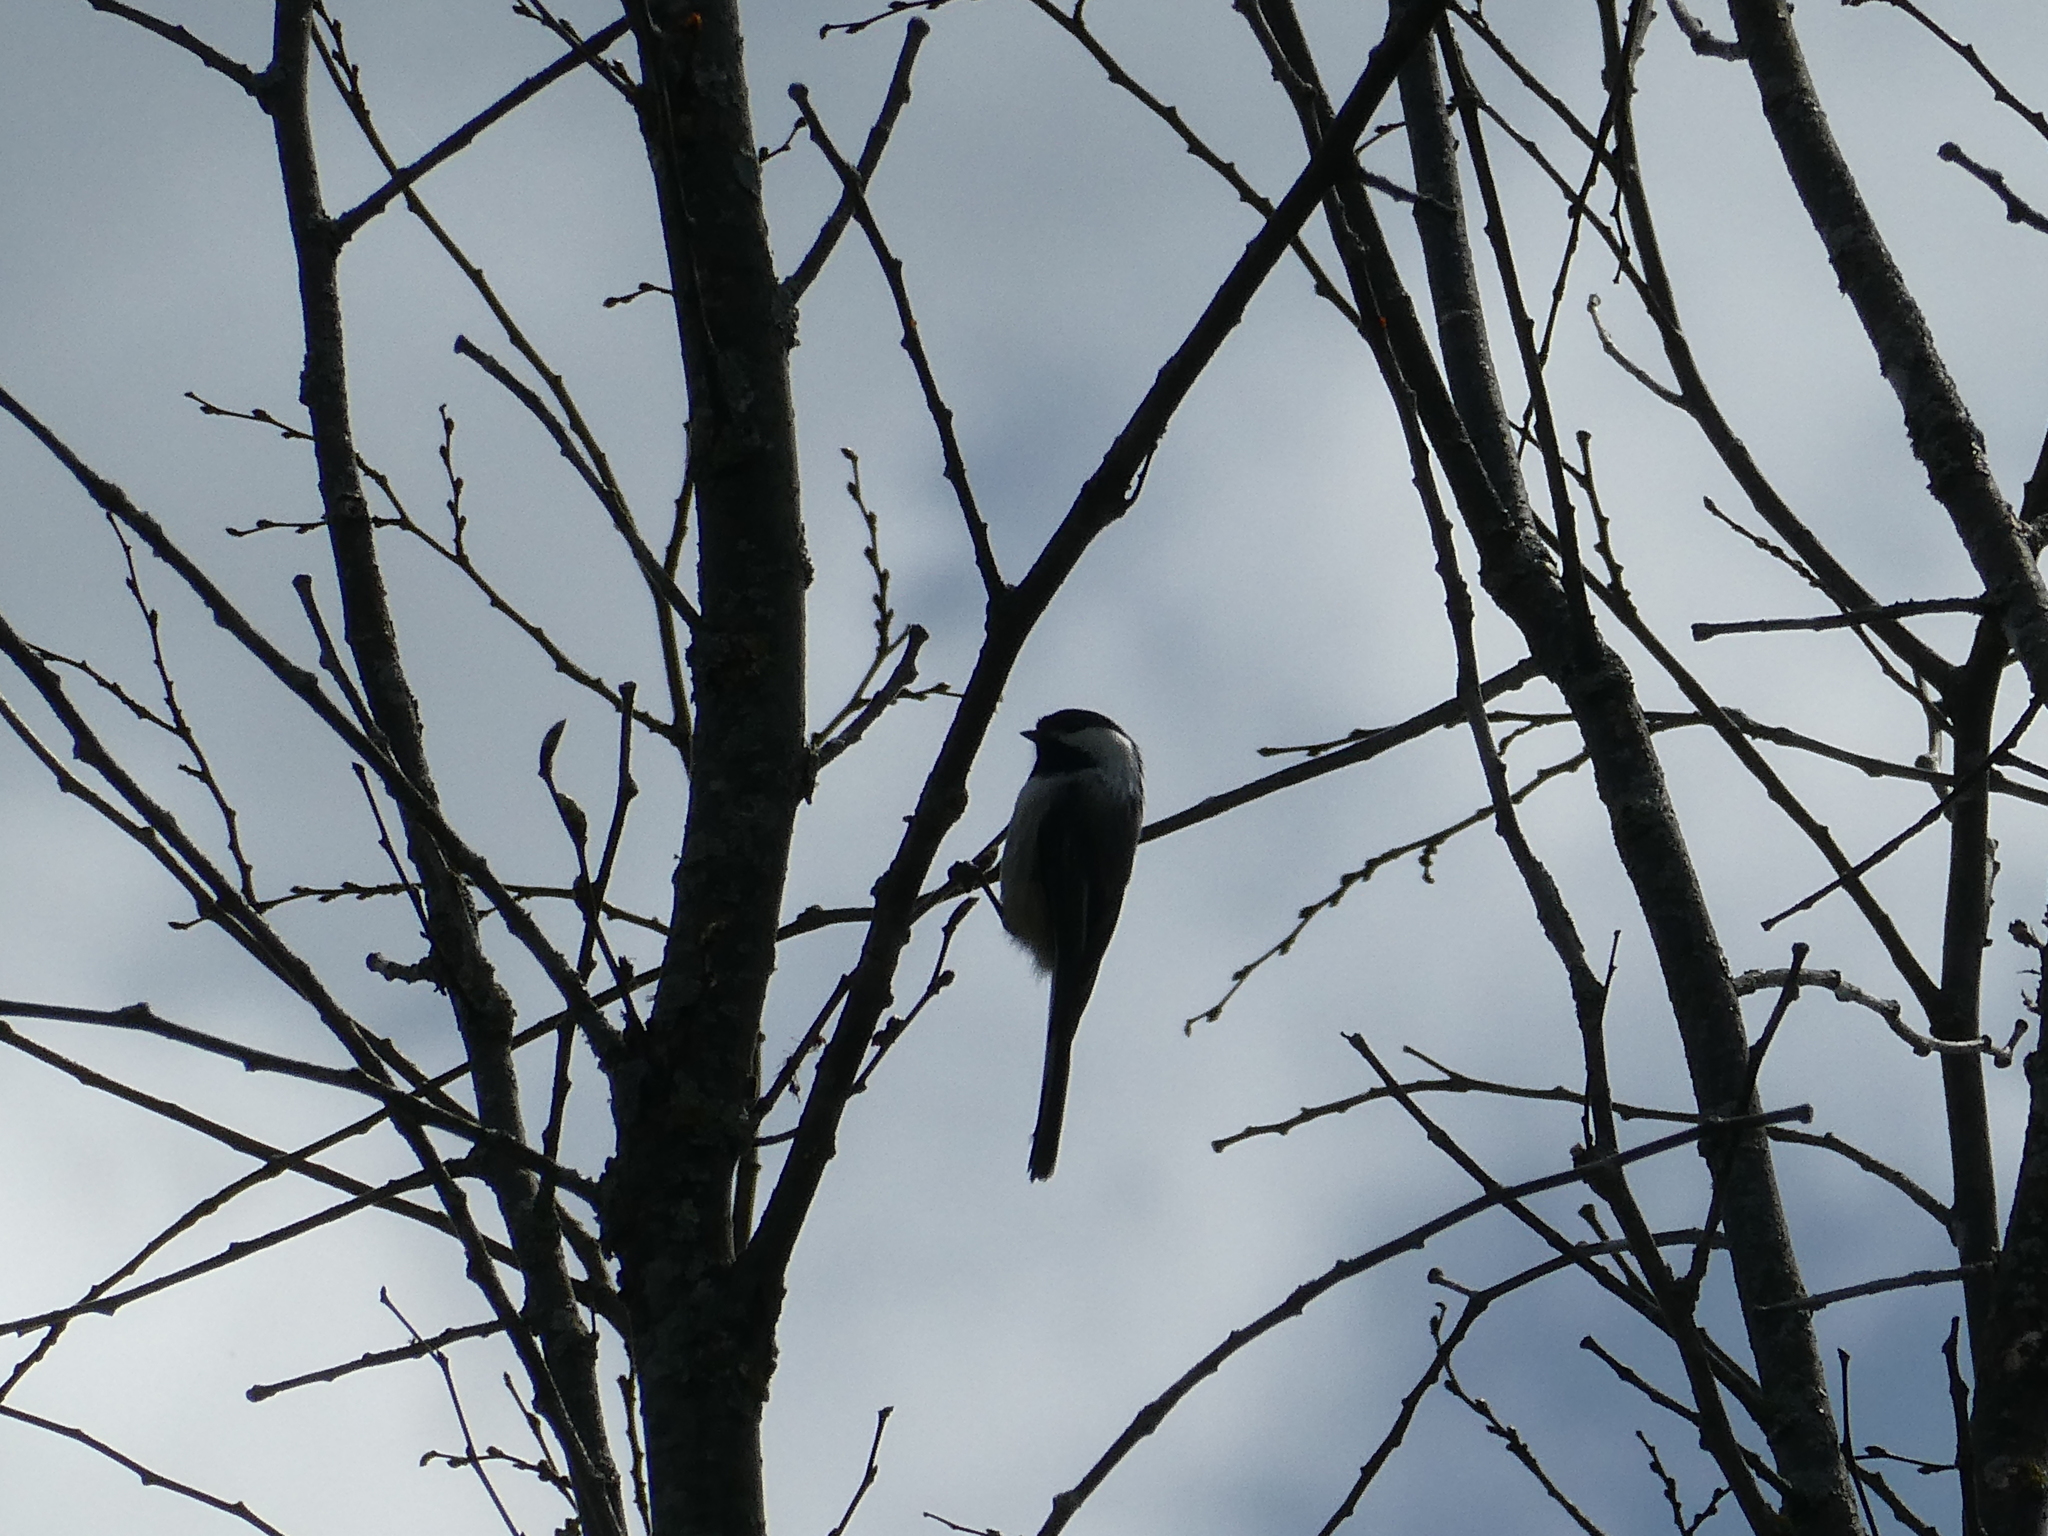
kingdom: Animalia
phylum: Chordata
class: Aves
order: Passeriformes
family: Paridae
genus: Poecile
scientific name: Poecile atricapillus
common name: Black-capped chickadee
